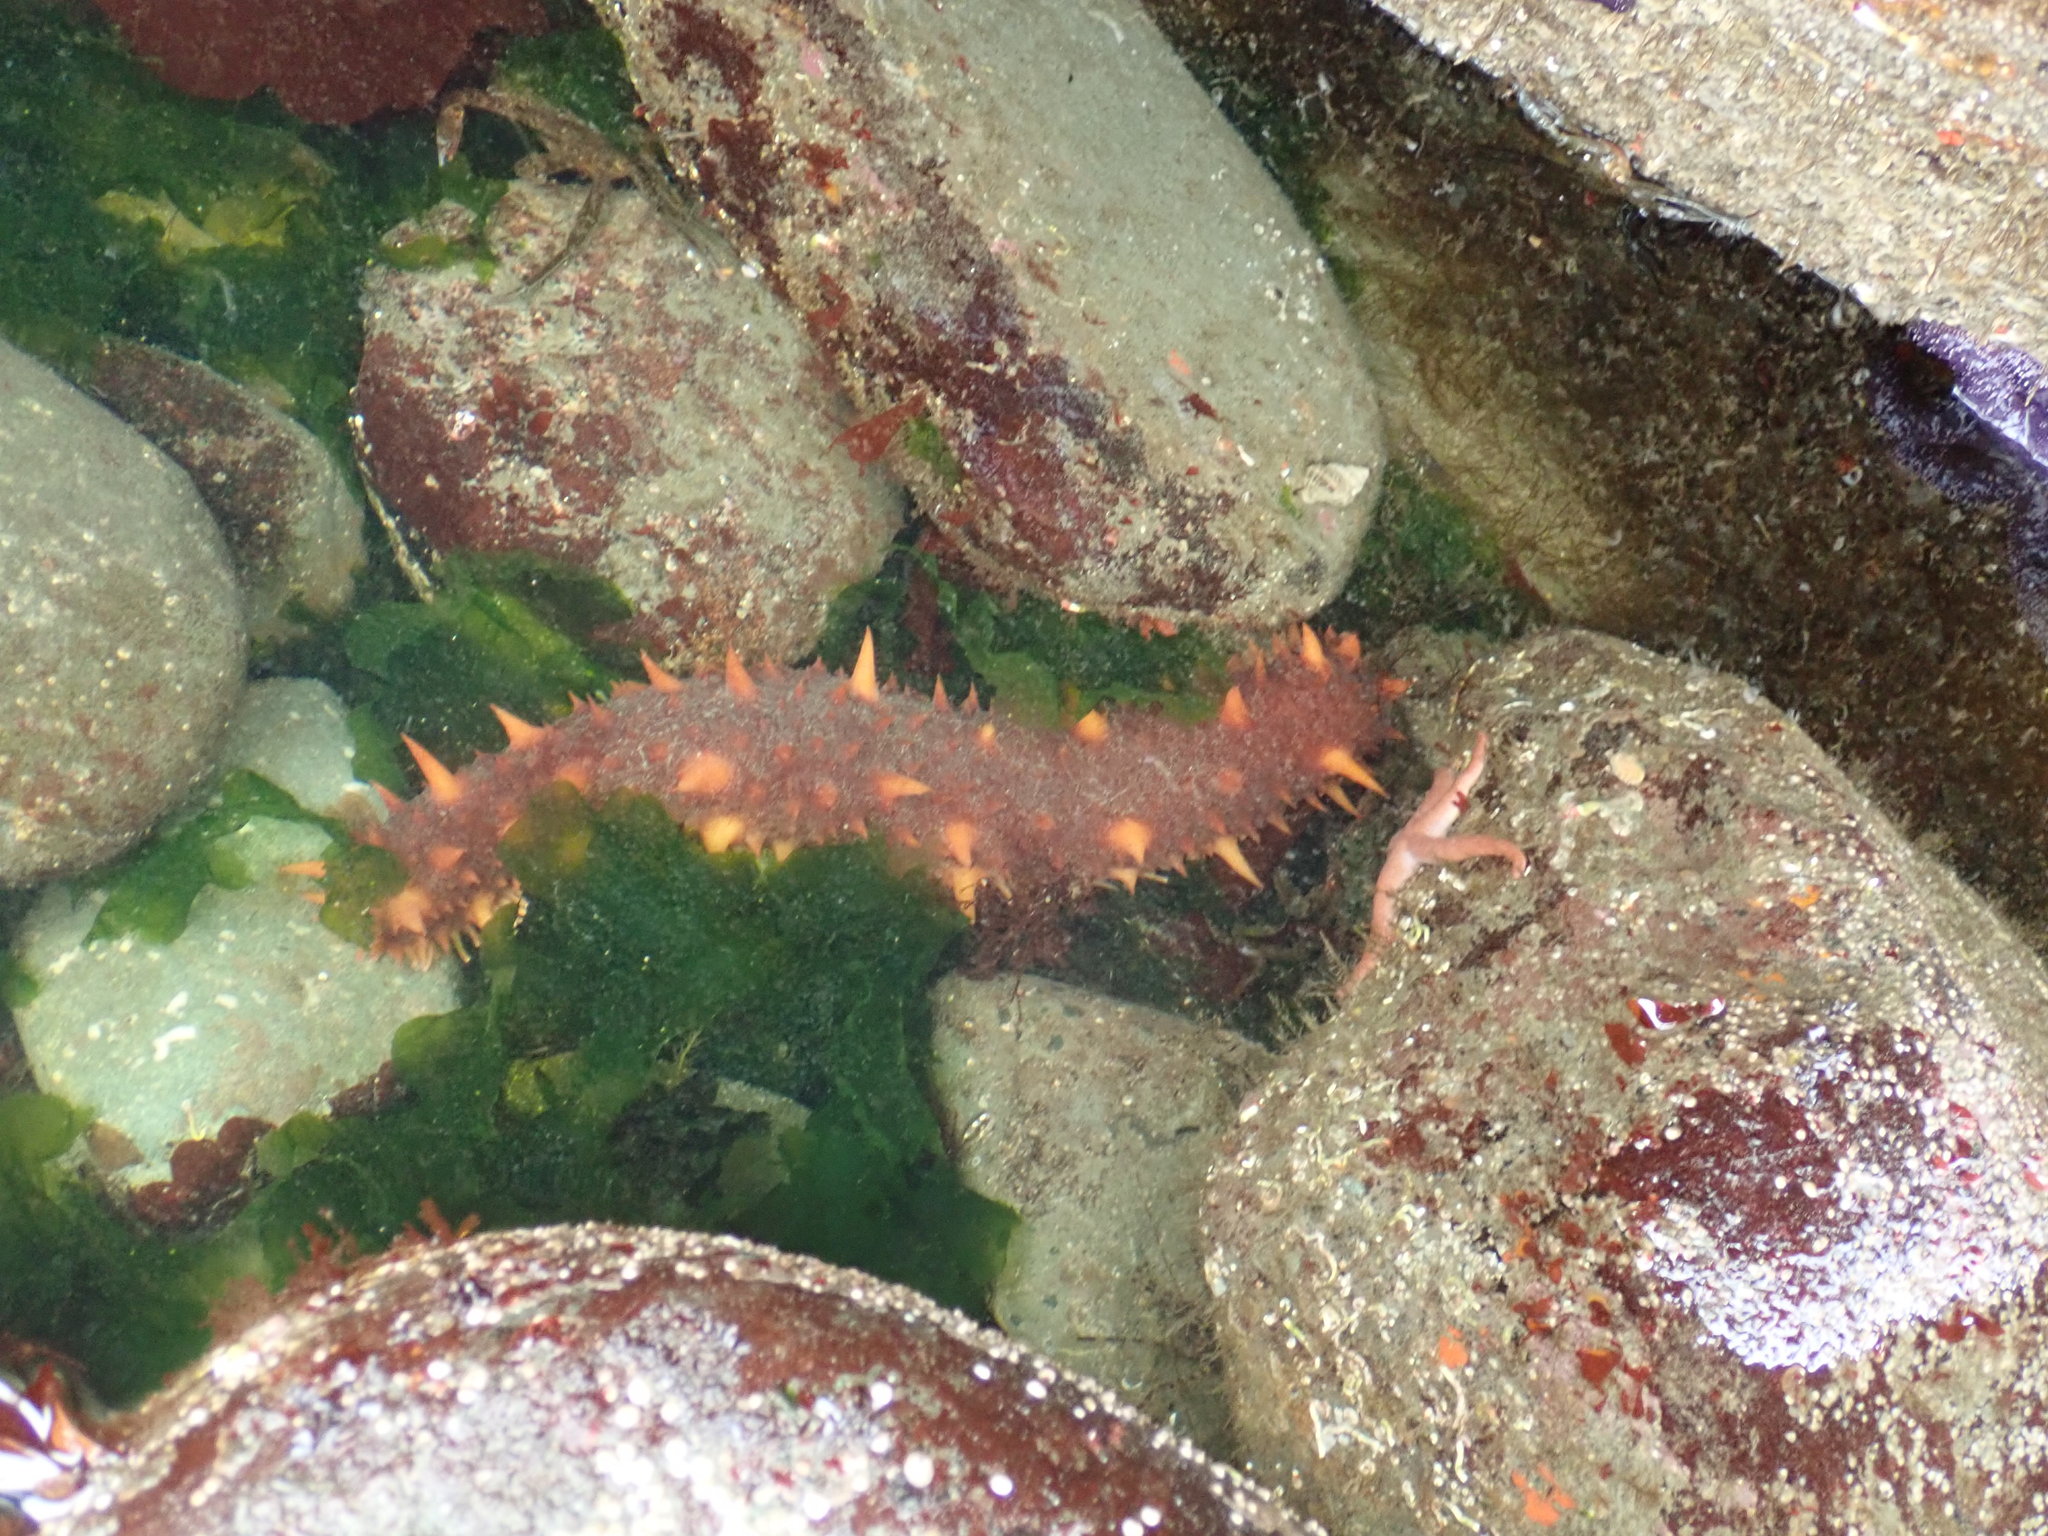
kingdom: Animalia
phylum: Echinodermata
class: Holothuroidea
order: Synallactida
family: Stichopodidae
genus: Apostichopus
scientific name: Apostichopus californicus
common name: California sea cucumber
